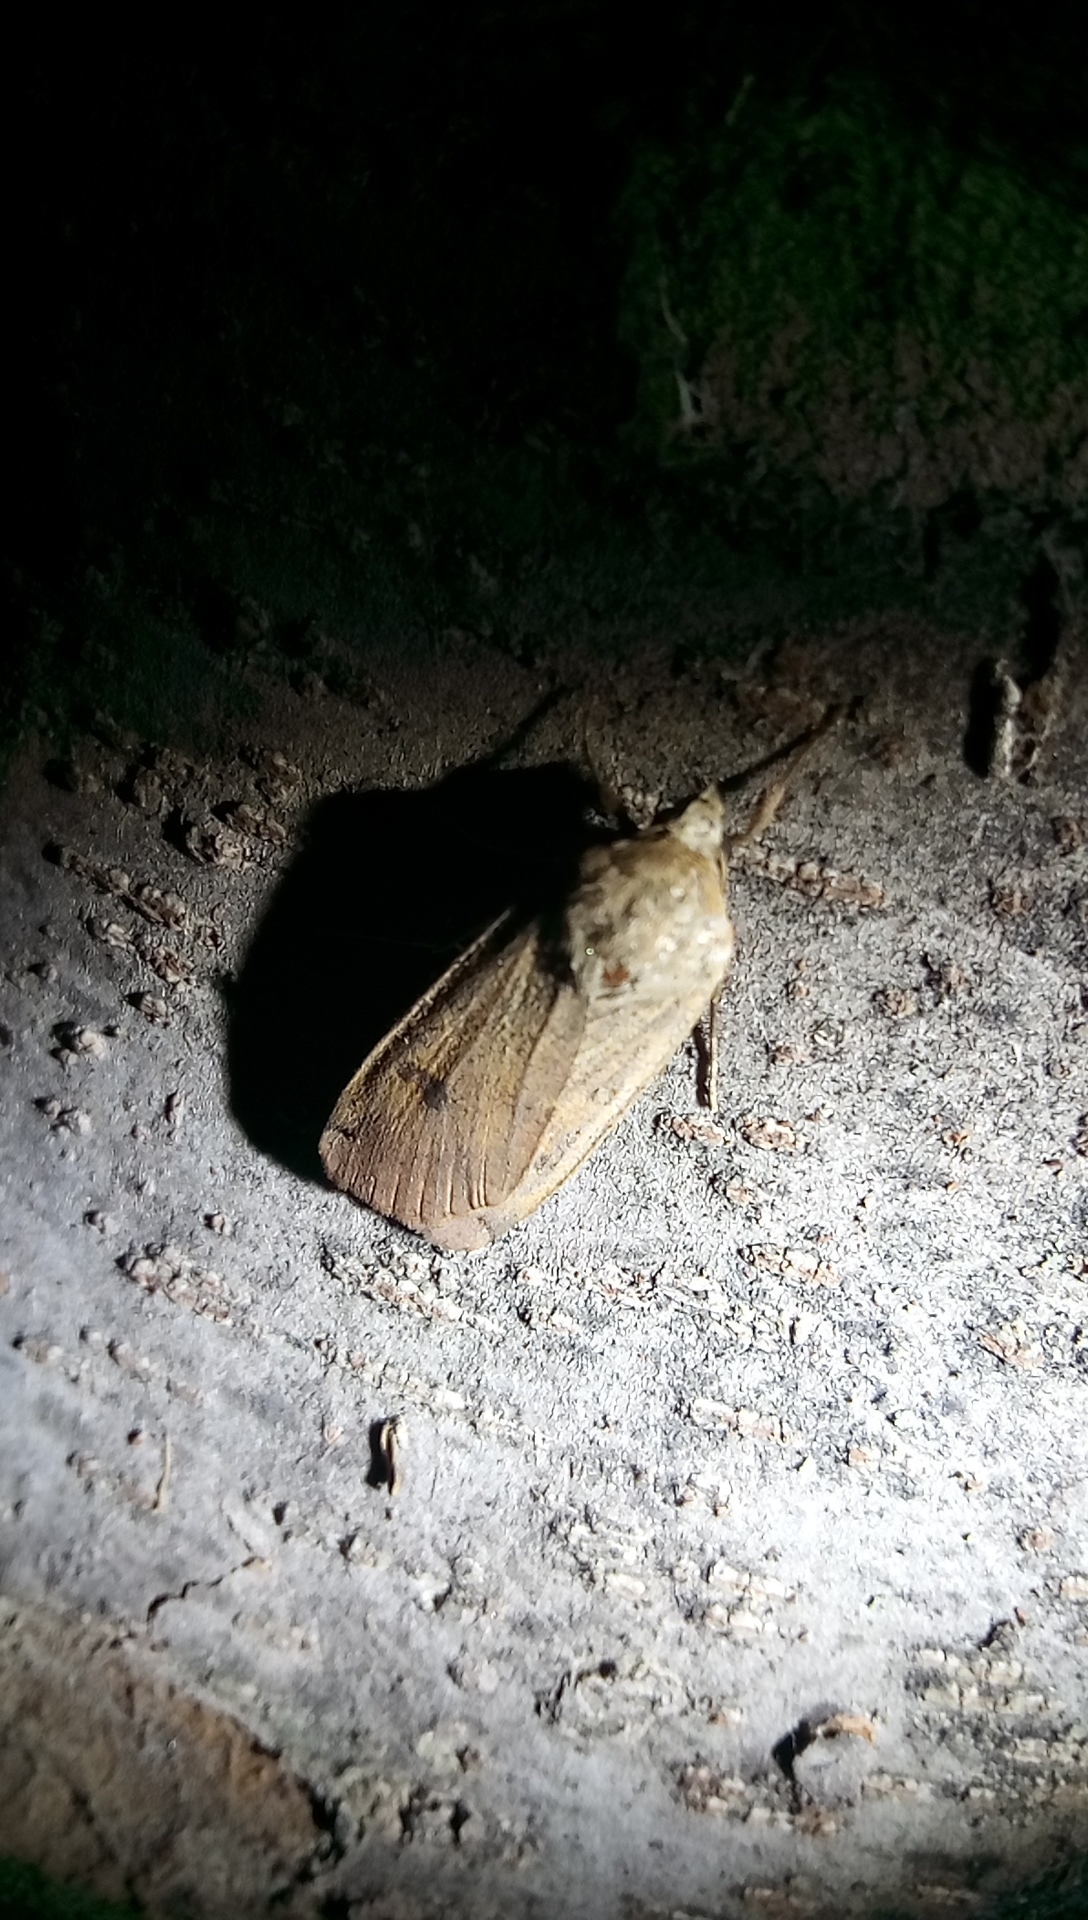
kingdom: Animalia
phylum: Arthropoda
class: Insecta
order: Lepidoptera
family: Noctuidae
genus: Noctua
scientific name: Noctua pronuba
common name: Large yellow underwing
